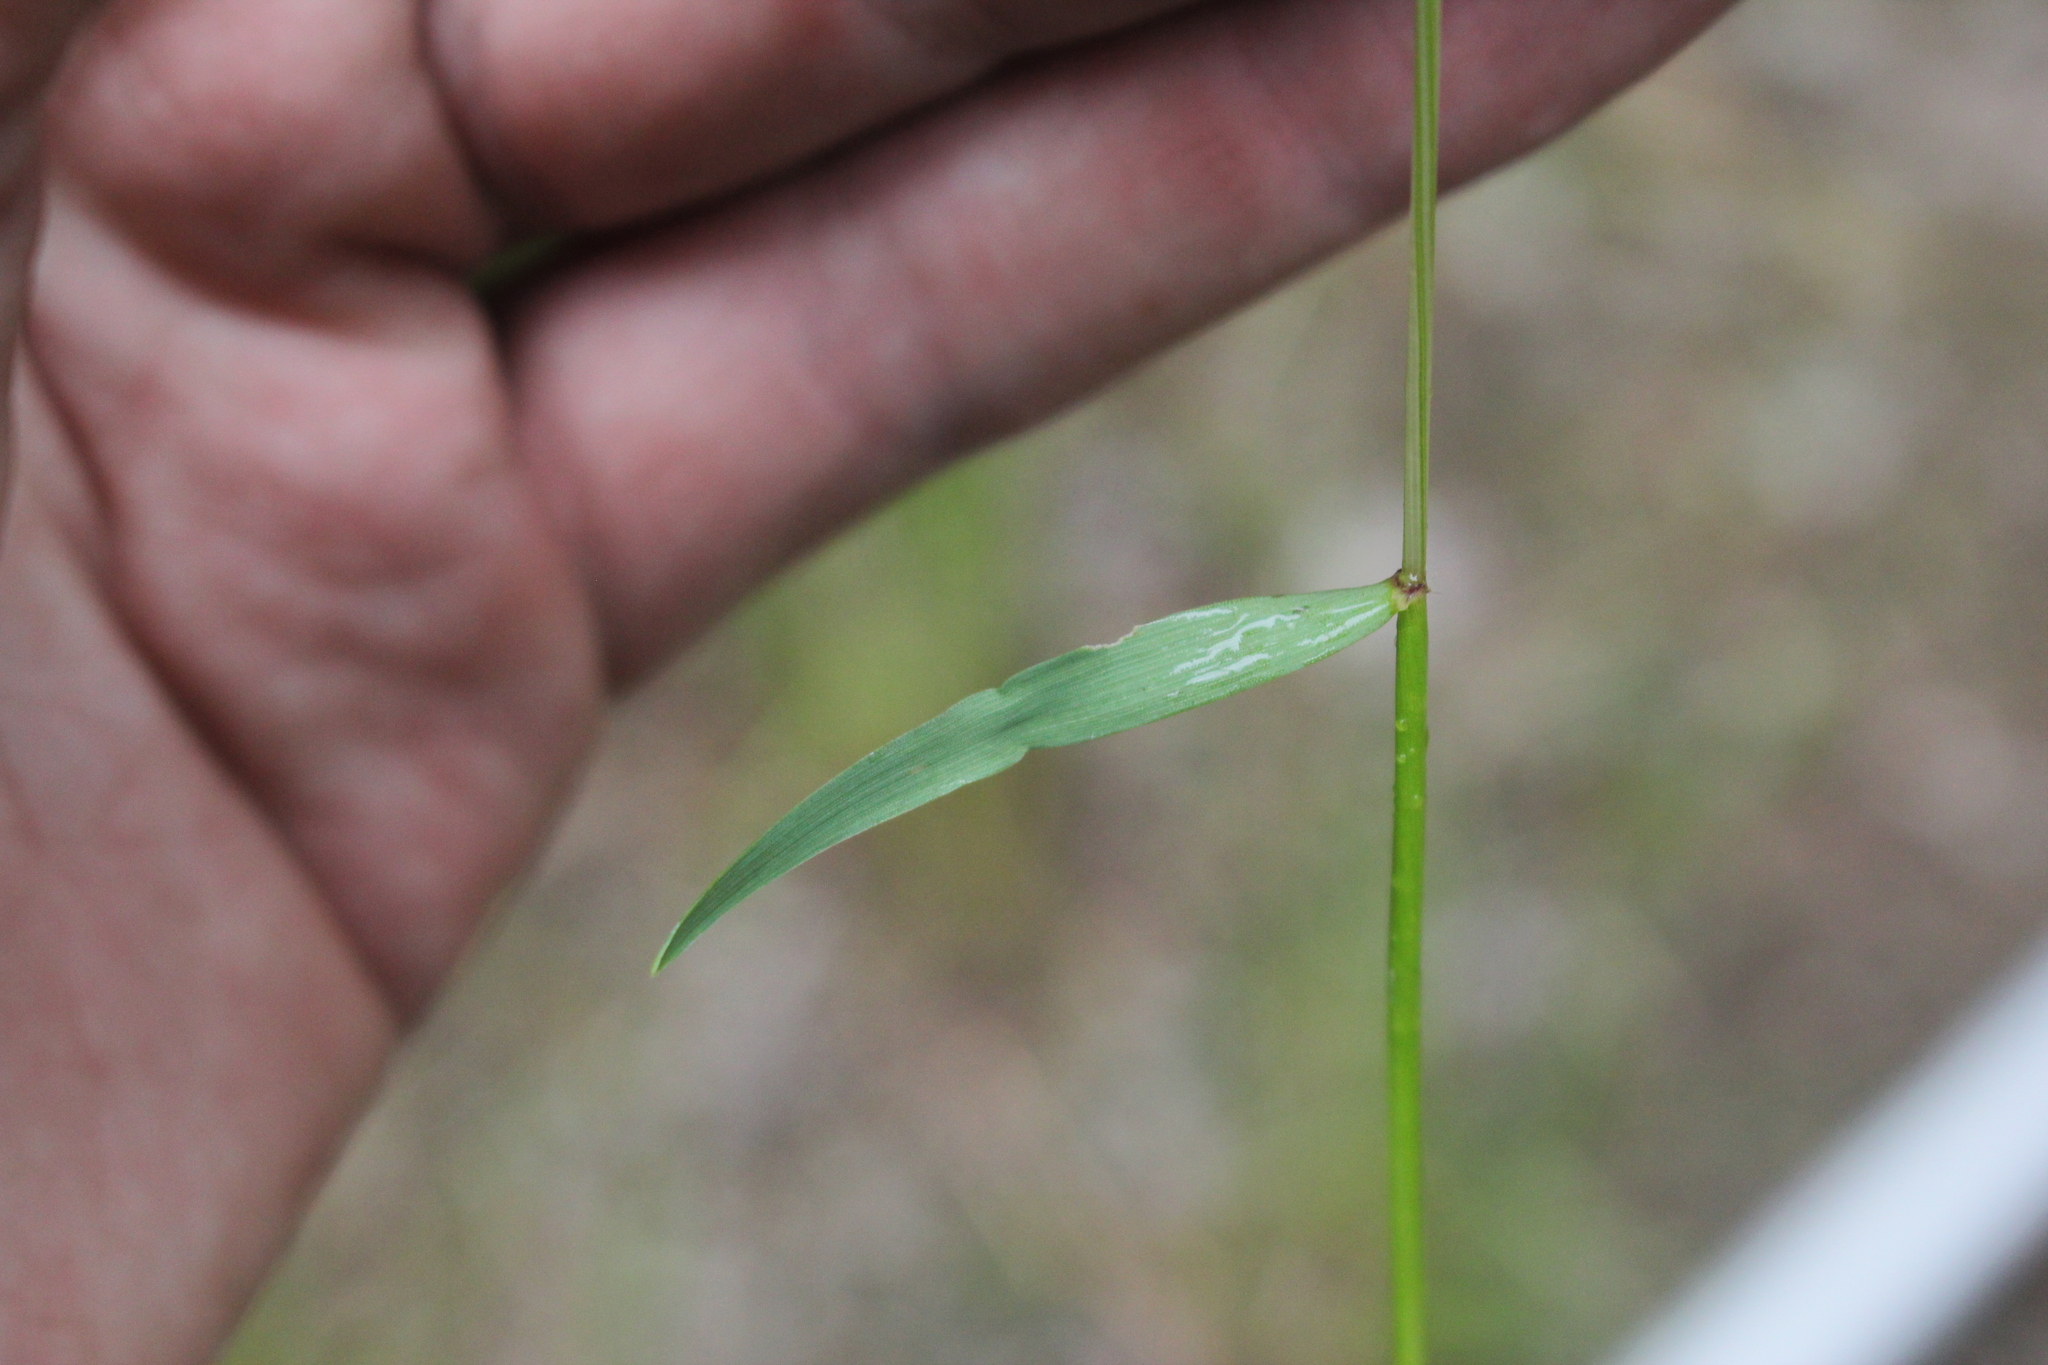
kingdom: Plantae
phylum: Tracheophyta
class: Liliopsida
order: Poales
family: Poaceae
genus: Anthoxanthum
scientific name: Anthoxanthum odoratum
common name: Sweet vernalgrass
